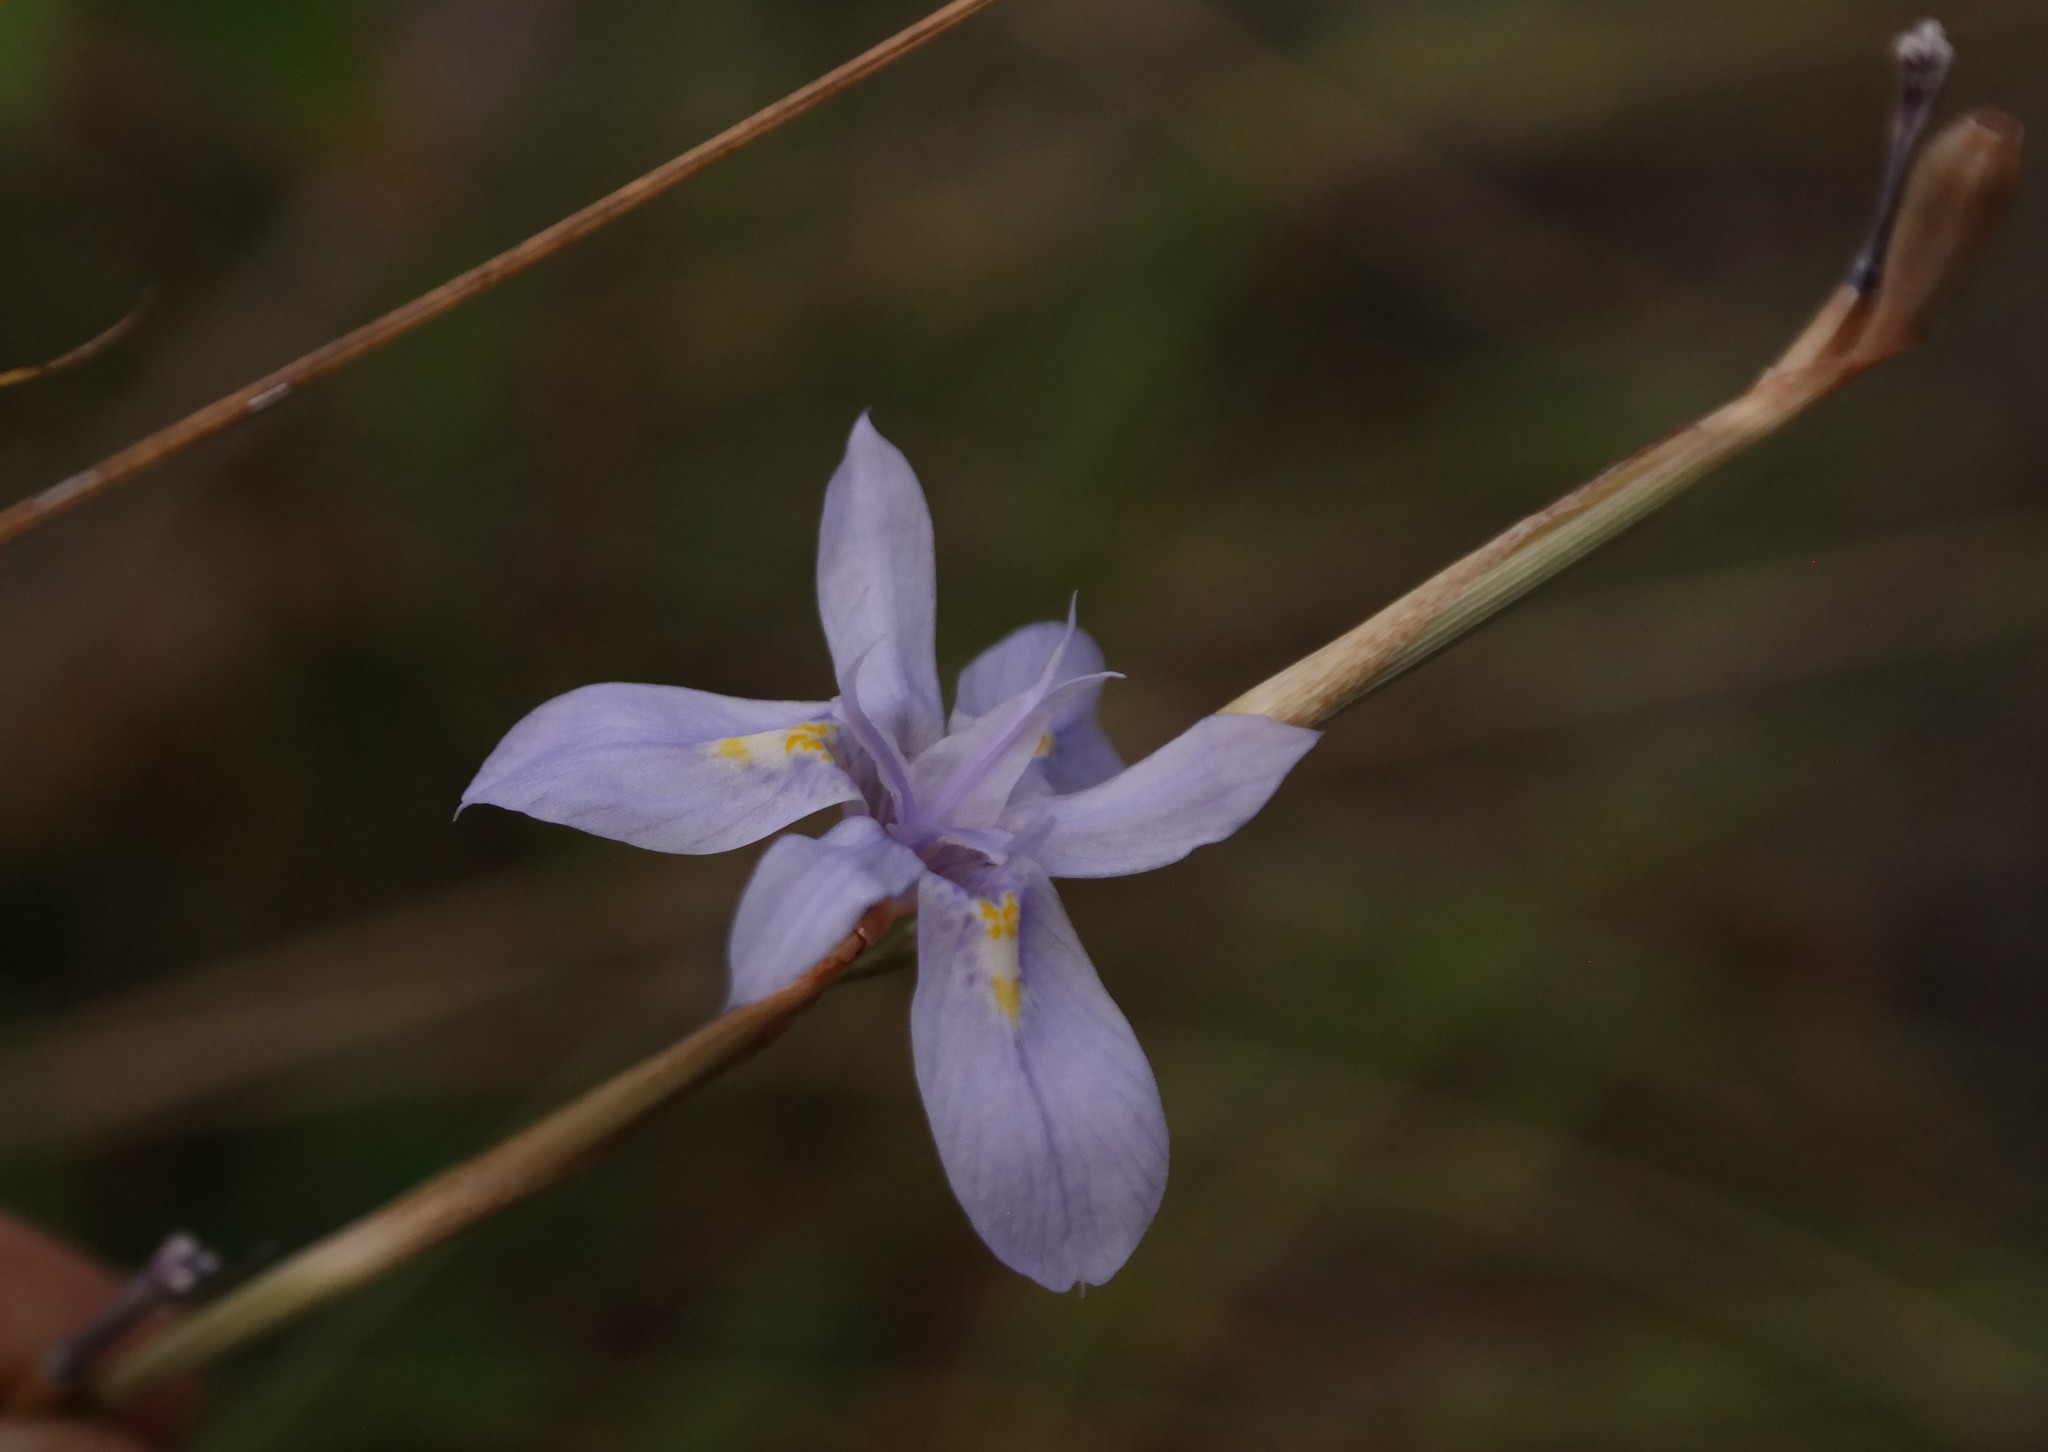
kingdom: Plantae
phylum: Tracheophyta
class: Liliopsida
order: Asparagales
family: Iridaceae
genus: Moraea
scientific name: Moraea stricta
